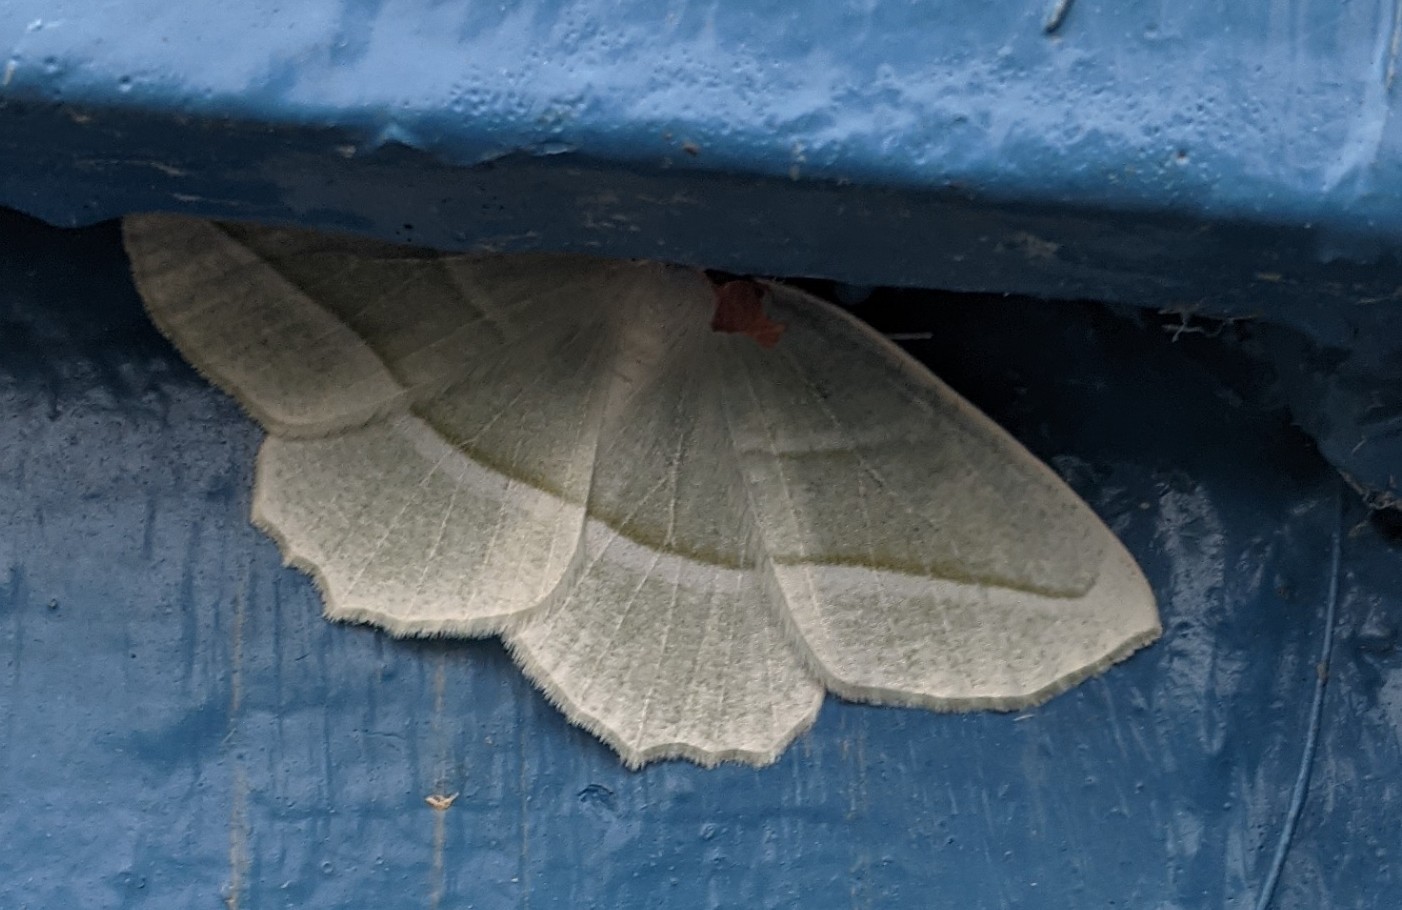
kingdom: Animalia
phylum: Arthropoda
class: Insecta
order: Lepidoptera
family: Geometridae
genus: Campaea
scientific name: Campaea perlata
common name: Fringed looper
